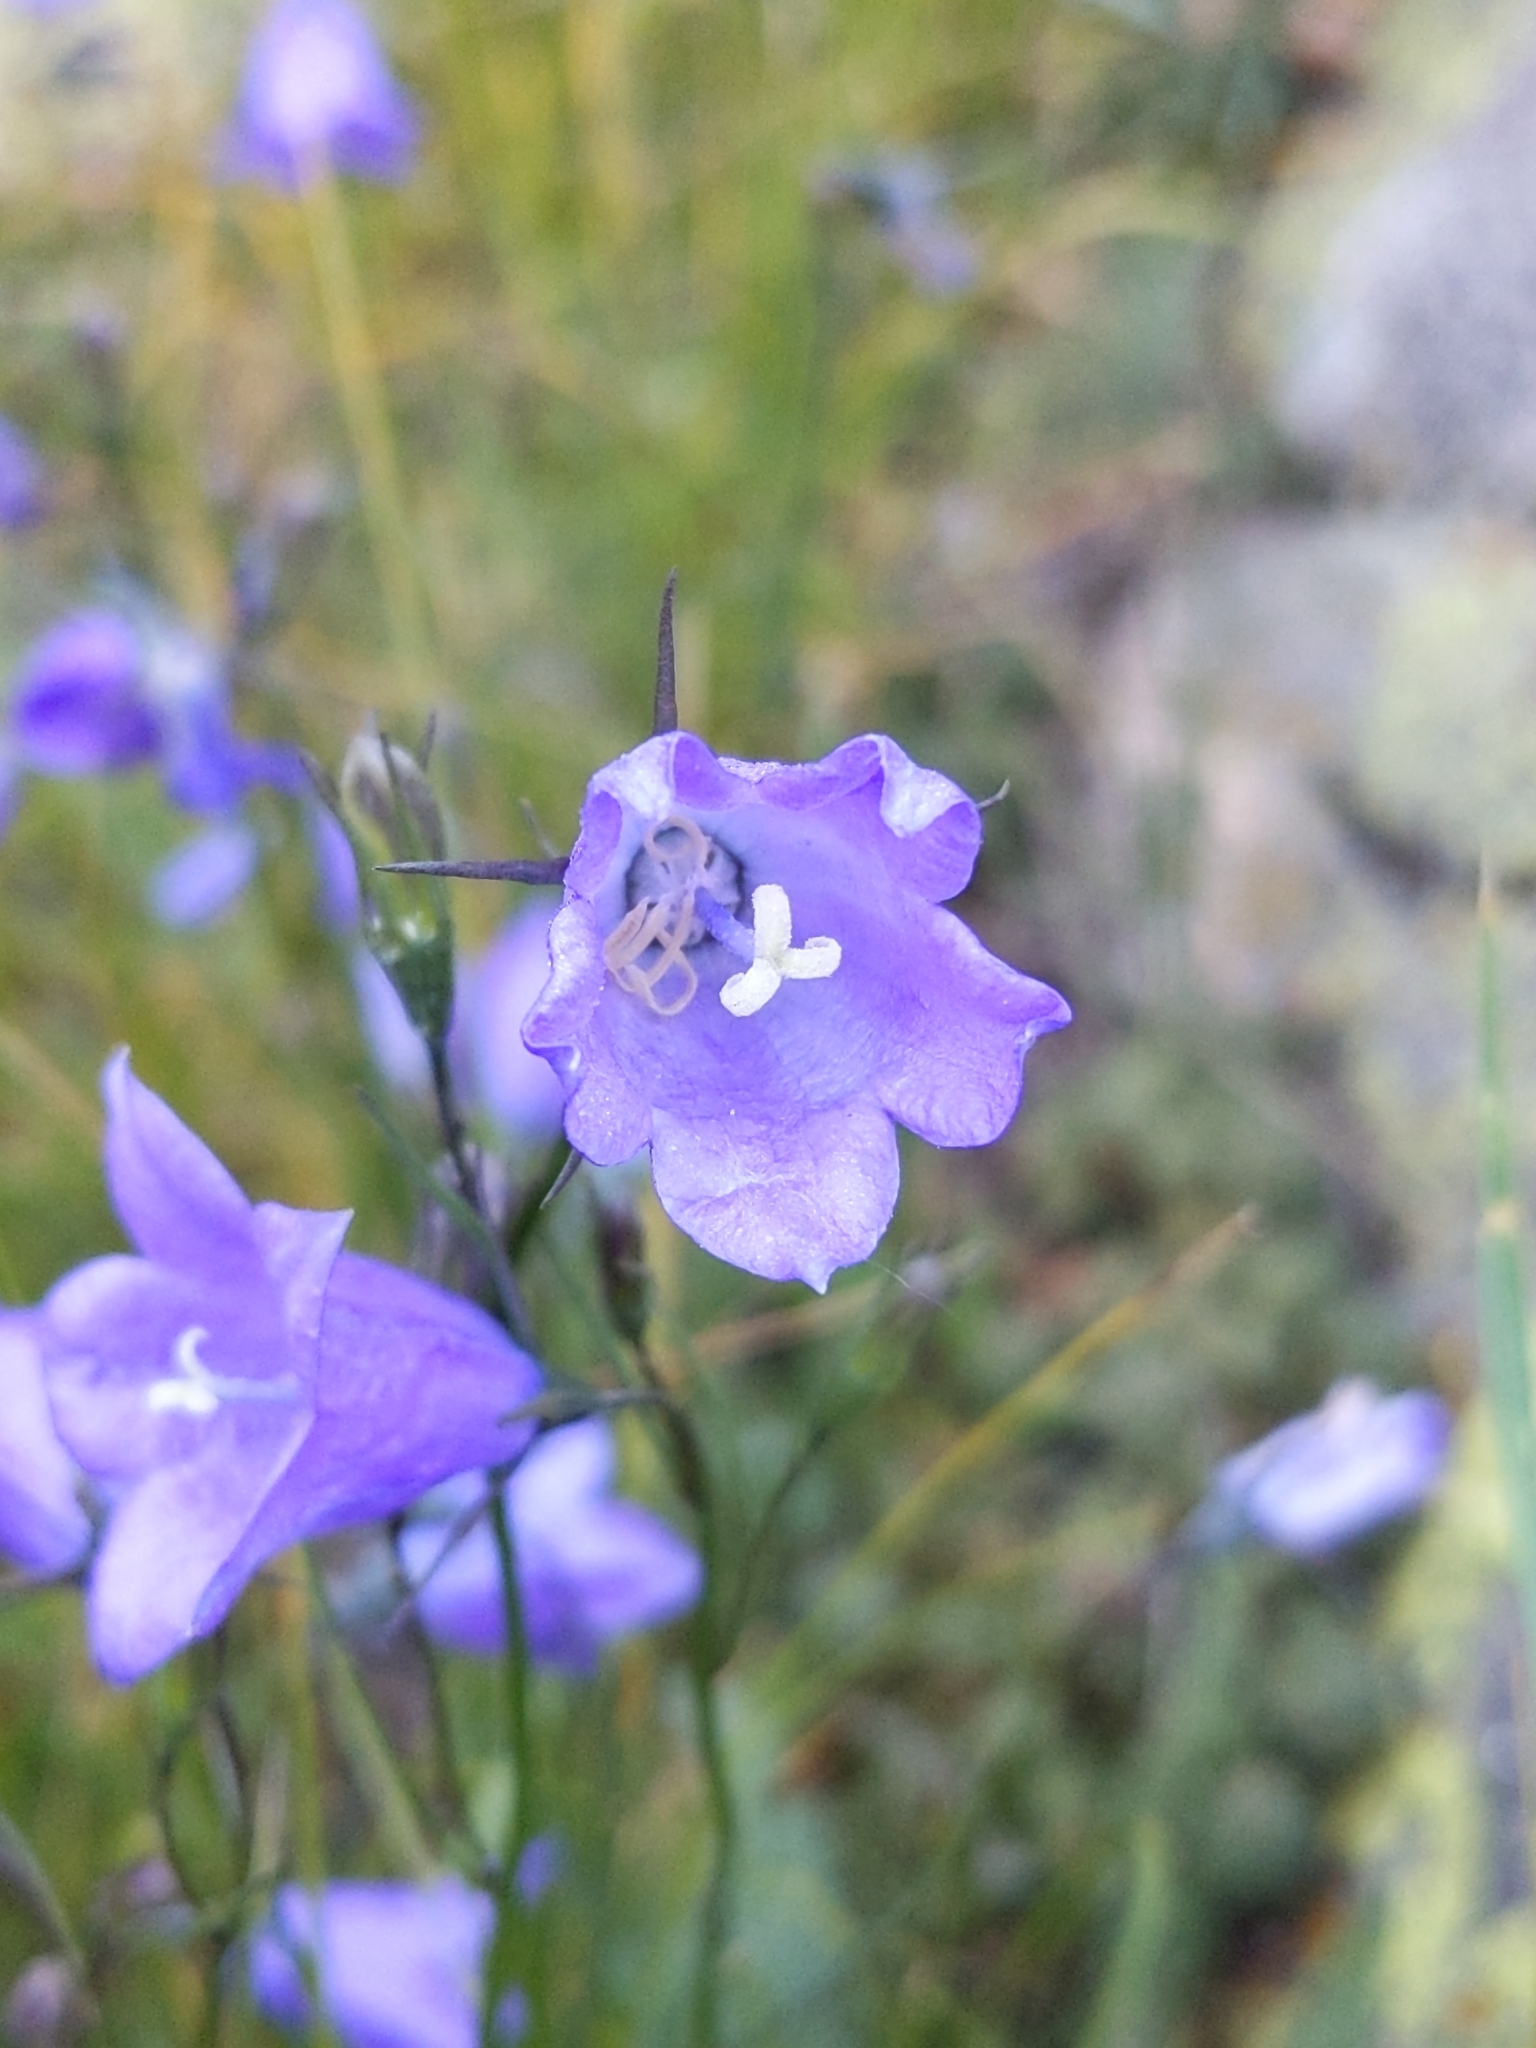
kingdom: Plantae
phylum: Tracheophyta
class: Magnoliopsida
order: Asterales
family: Campanulaceae
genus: Campanula
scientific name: Campanula petiolata
